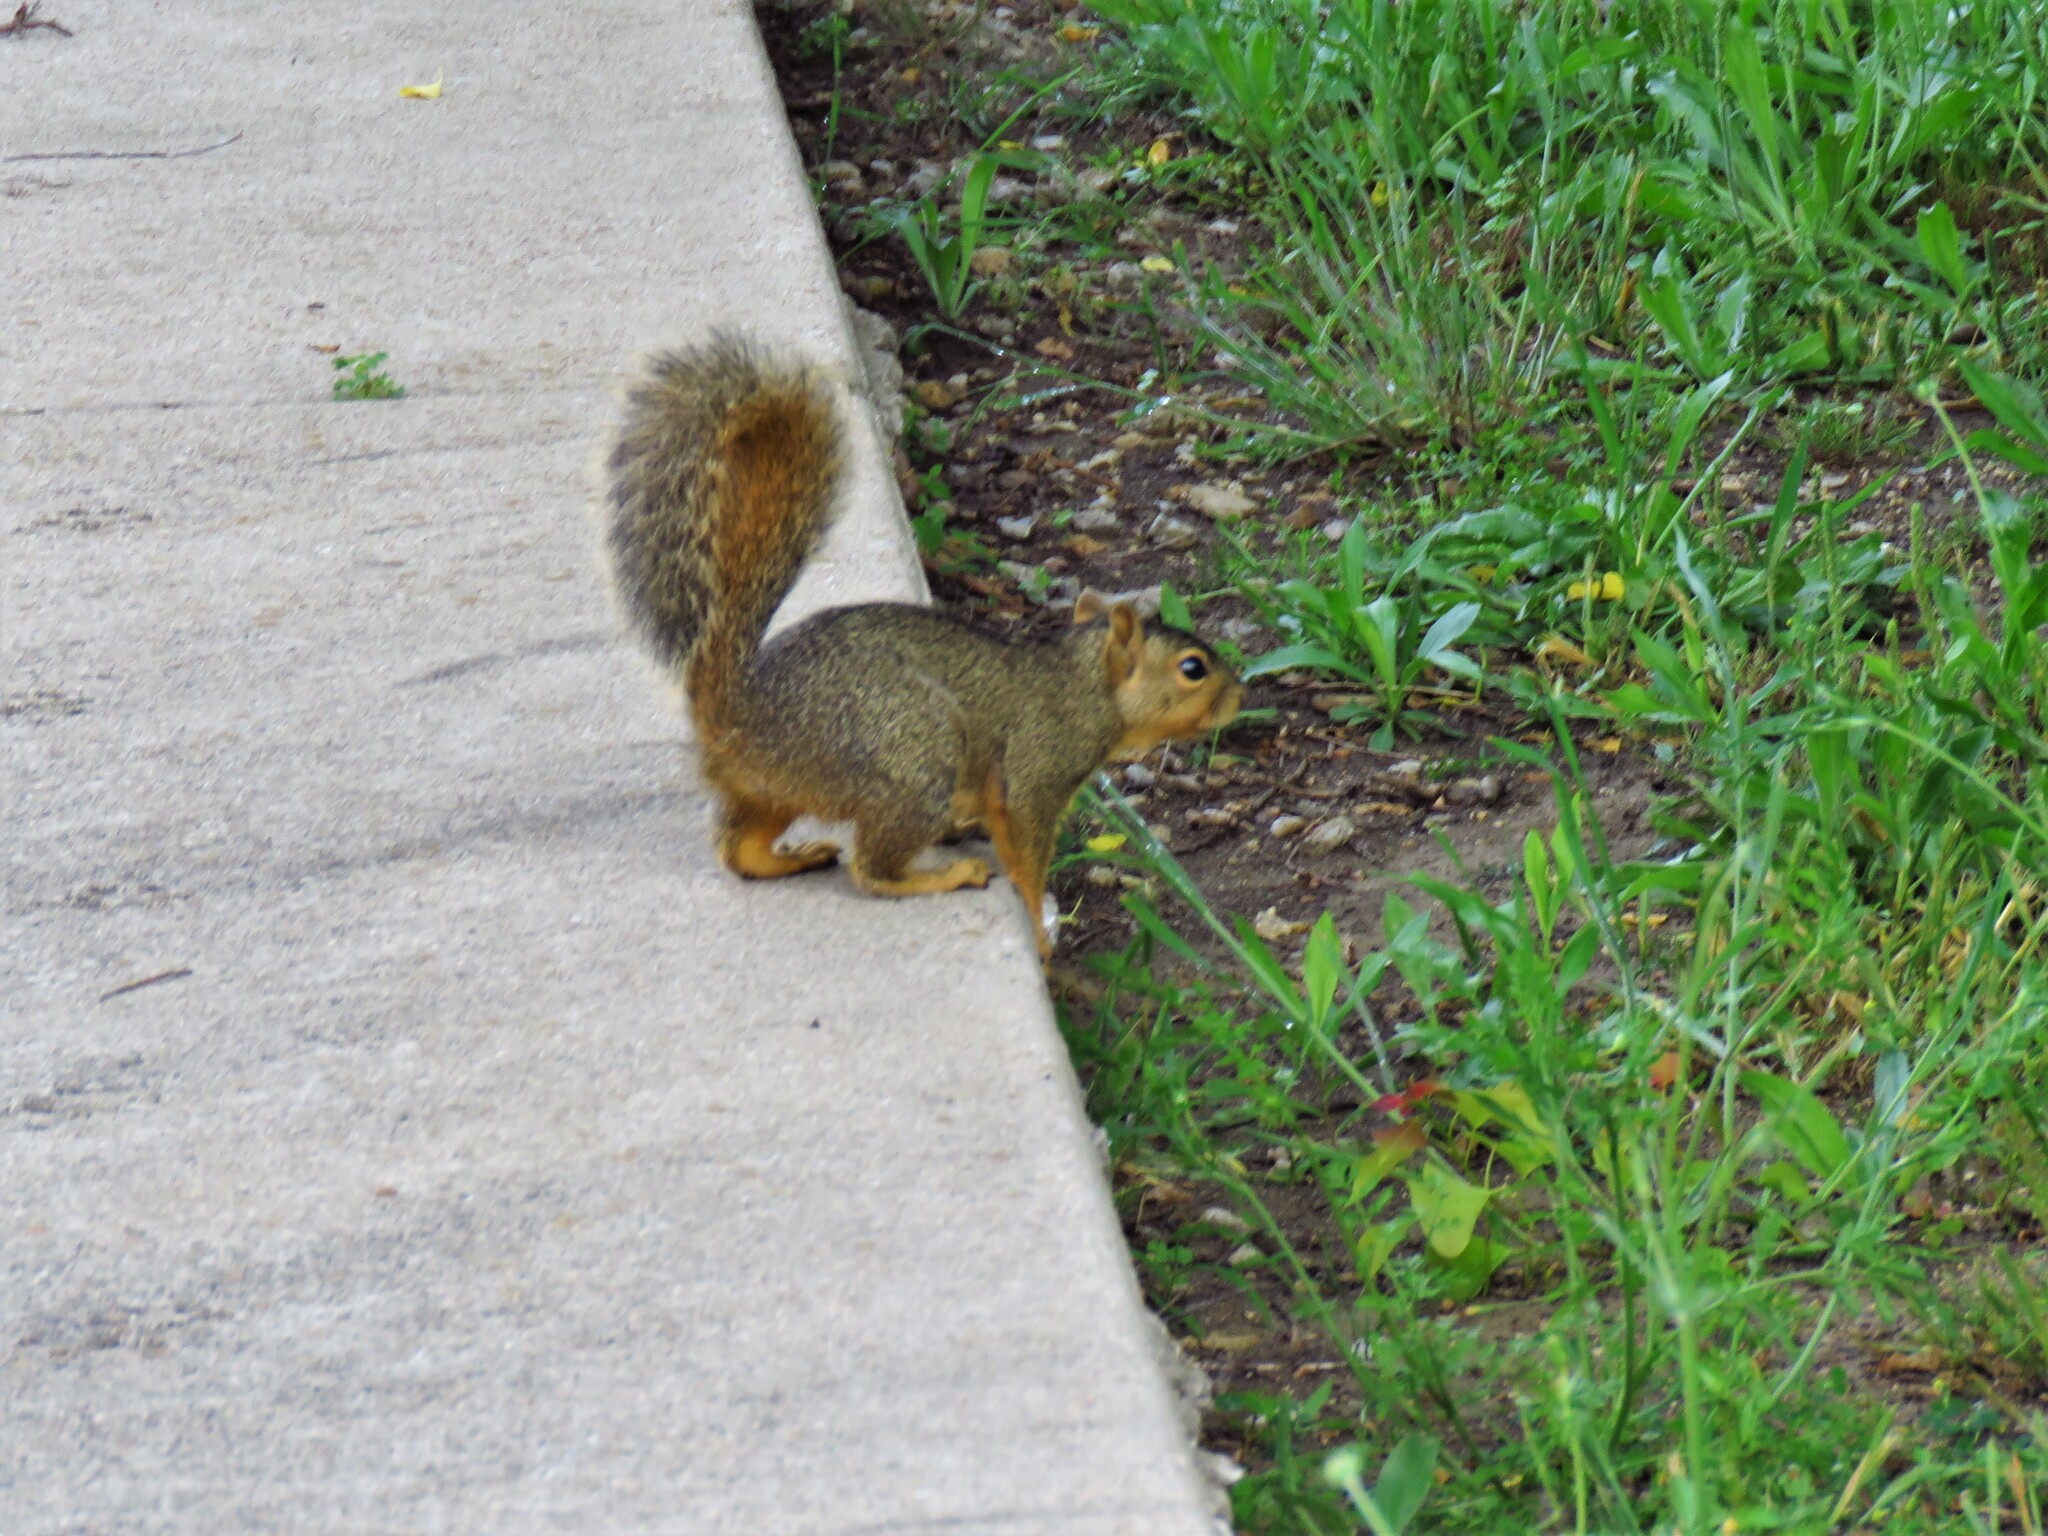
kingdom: Animalia
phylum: Chordata
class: Mammalia
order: Rodentia
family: Sciuridae
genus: Sciurus
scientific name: Sciurus niger
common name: Fox squirrel
